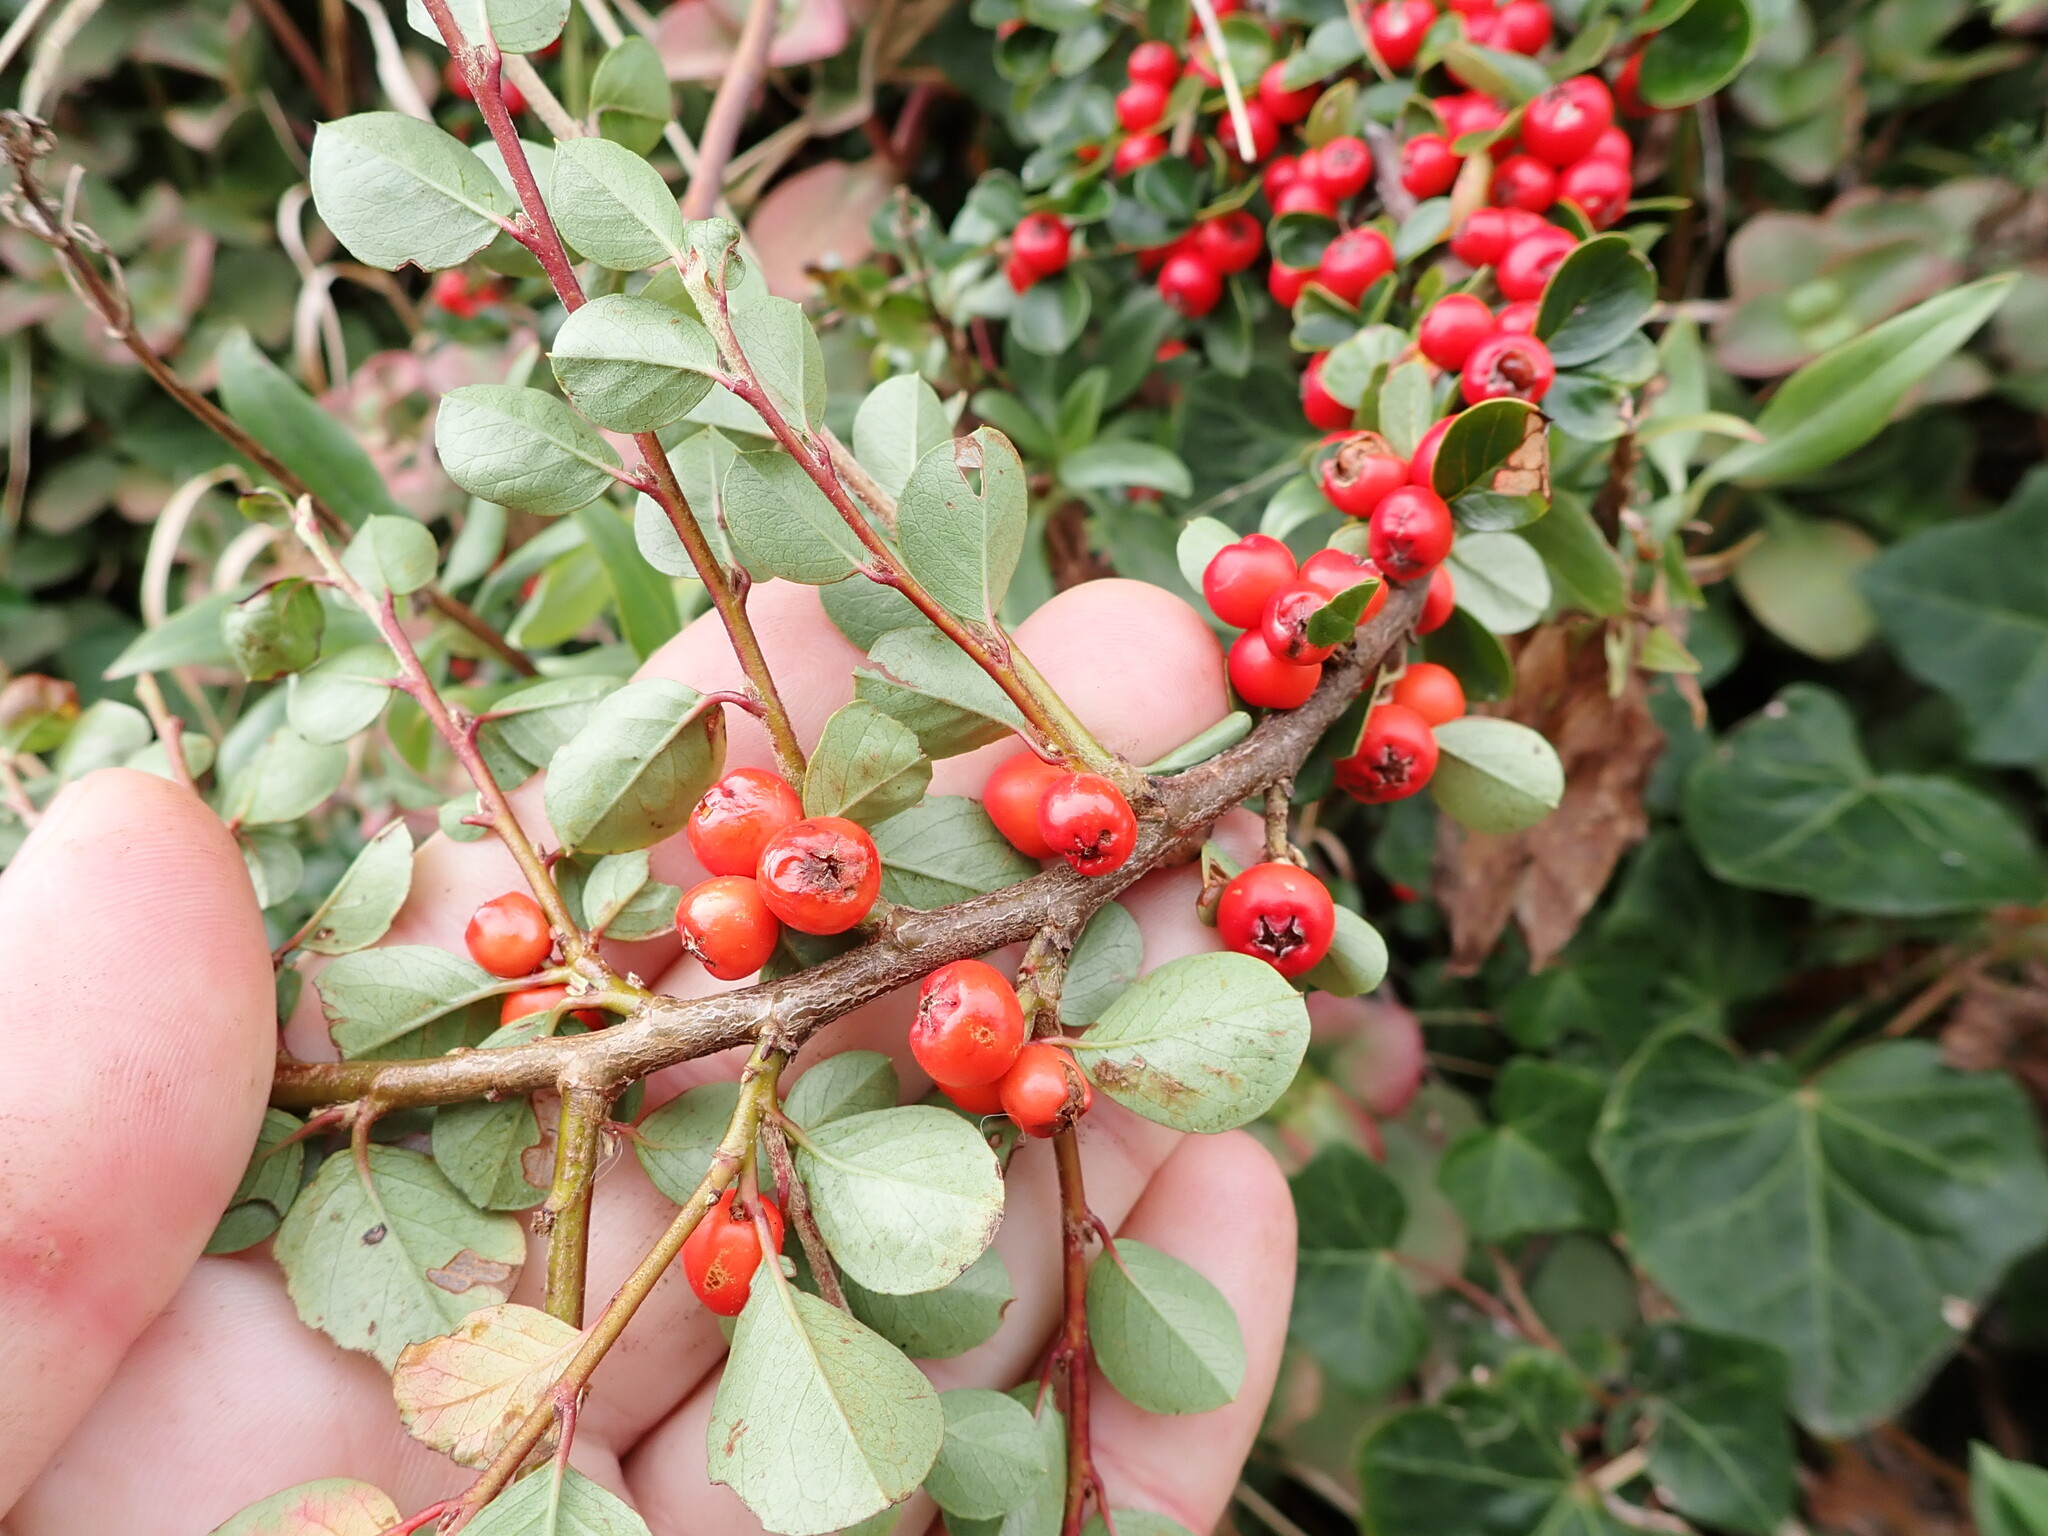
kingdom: Plantae
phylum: Tracheophyta
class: Magnoliopsida
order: Rosales
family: Rosaceae
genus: Cotoneaster
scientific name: Cotoneaster hjelmqvistii
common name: Hjelmqvist's cotoneaster
